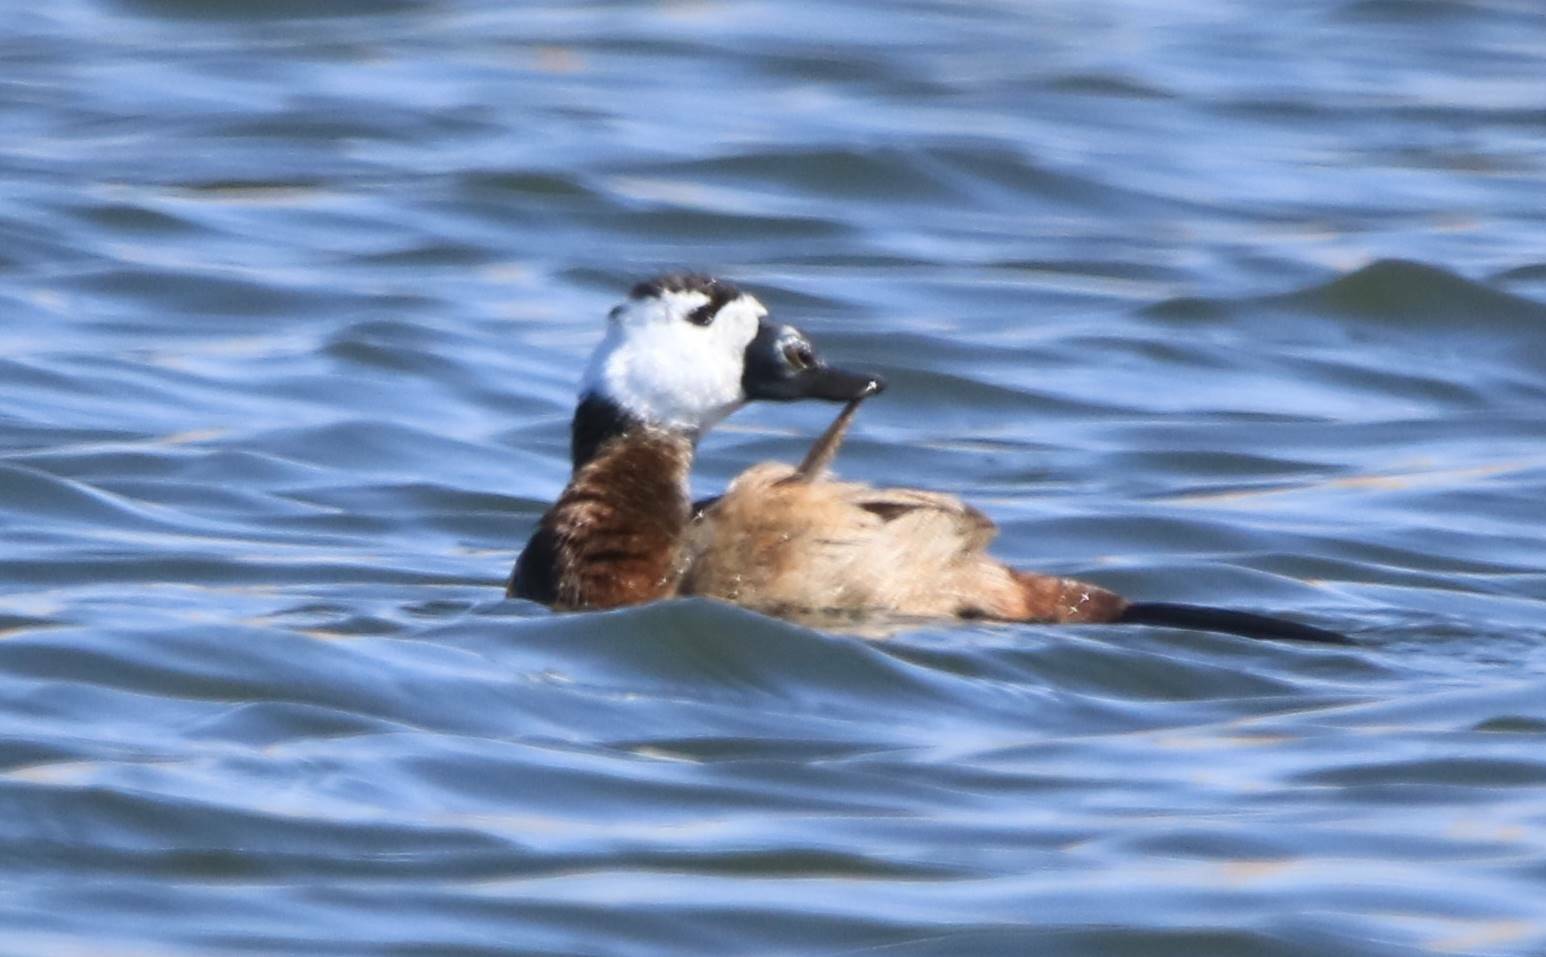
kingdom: Animalia
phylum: Chordata
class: Aves
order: Anseriformes
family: Anatidae
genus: Oxyura
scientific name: Oxyura leucocephala
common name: White-headed duck
